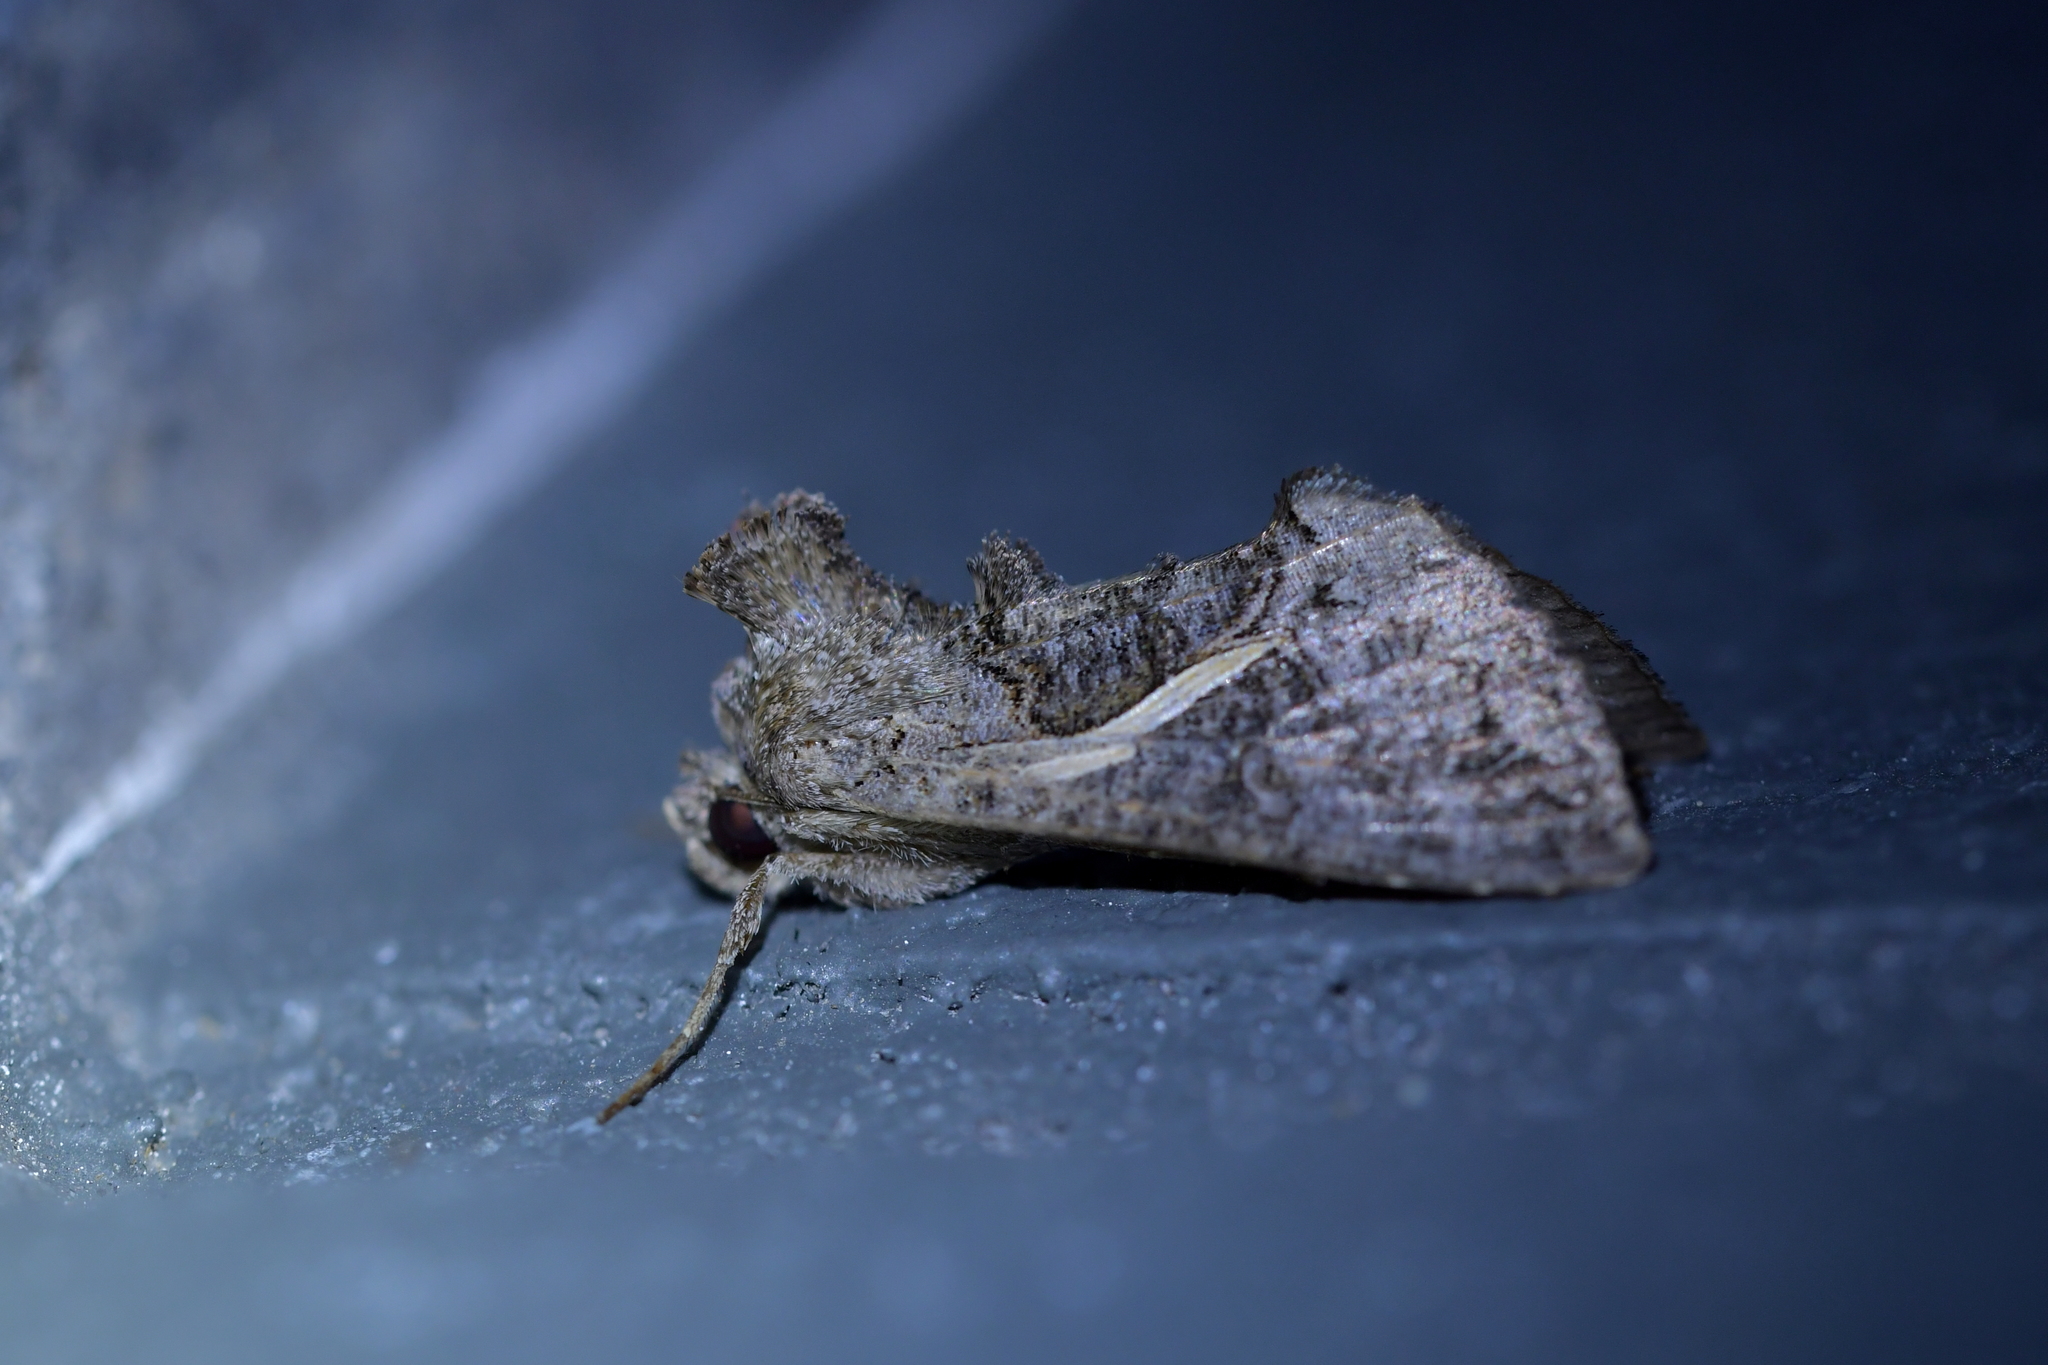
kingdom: Animalia
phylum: Arthropoda
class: Insecta
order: Lepidoptera
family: Noctuidae
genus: Ctenoplusia
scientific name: Ctenoplusia albostriata
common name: Moth
